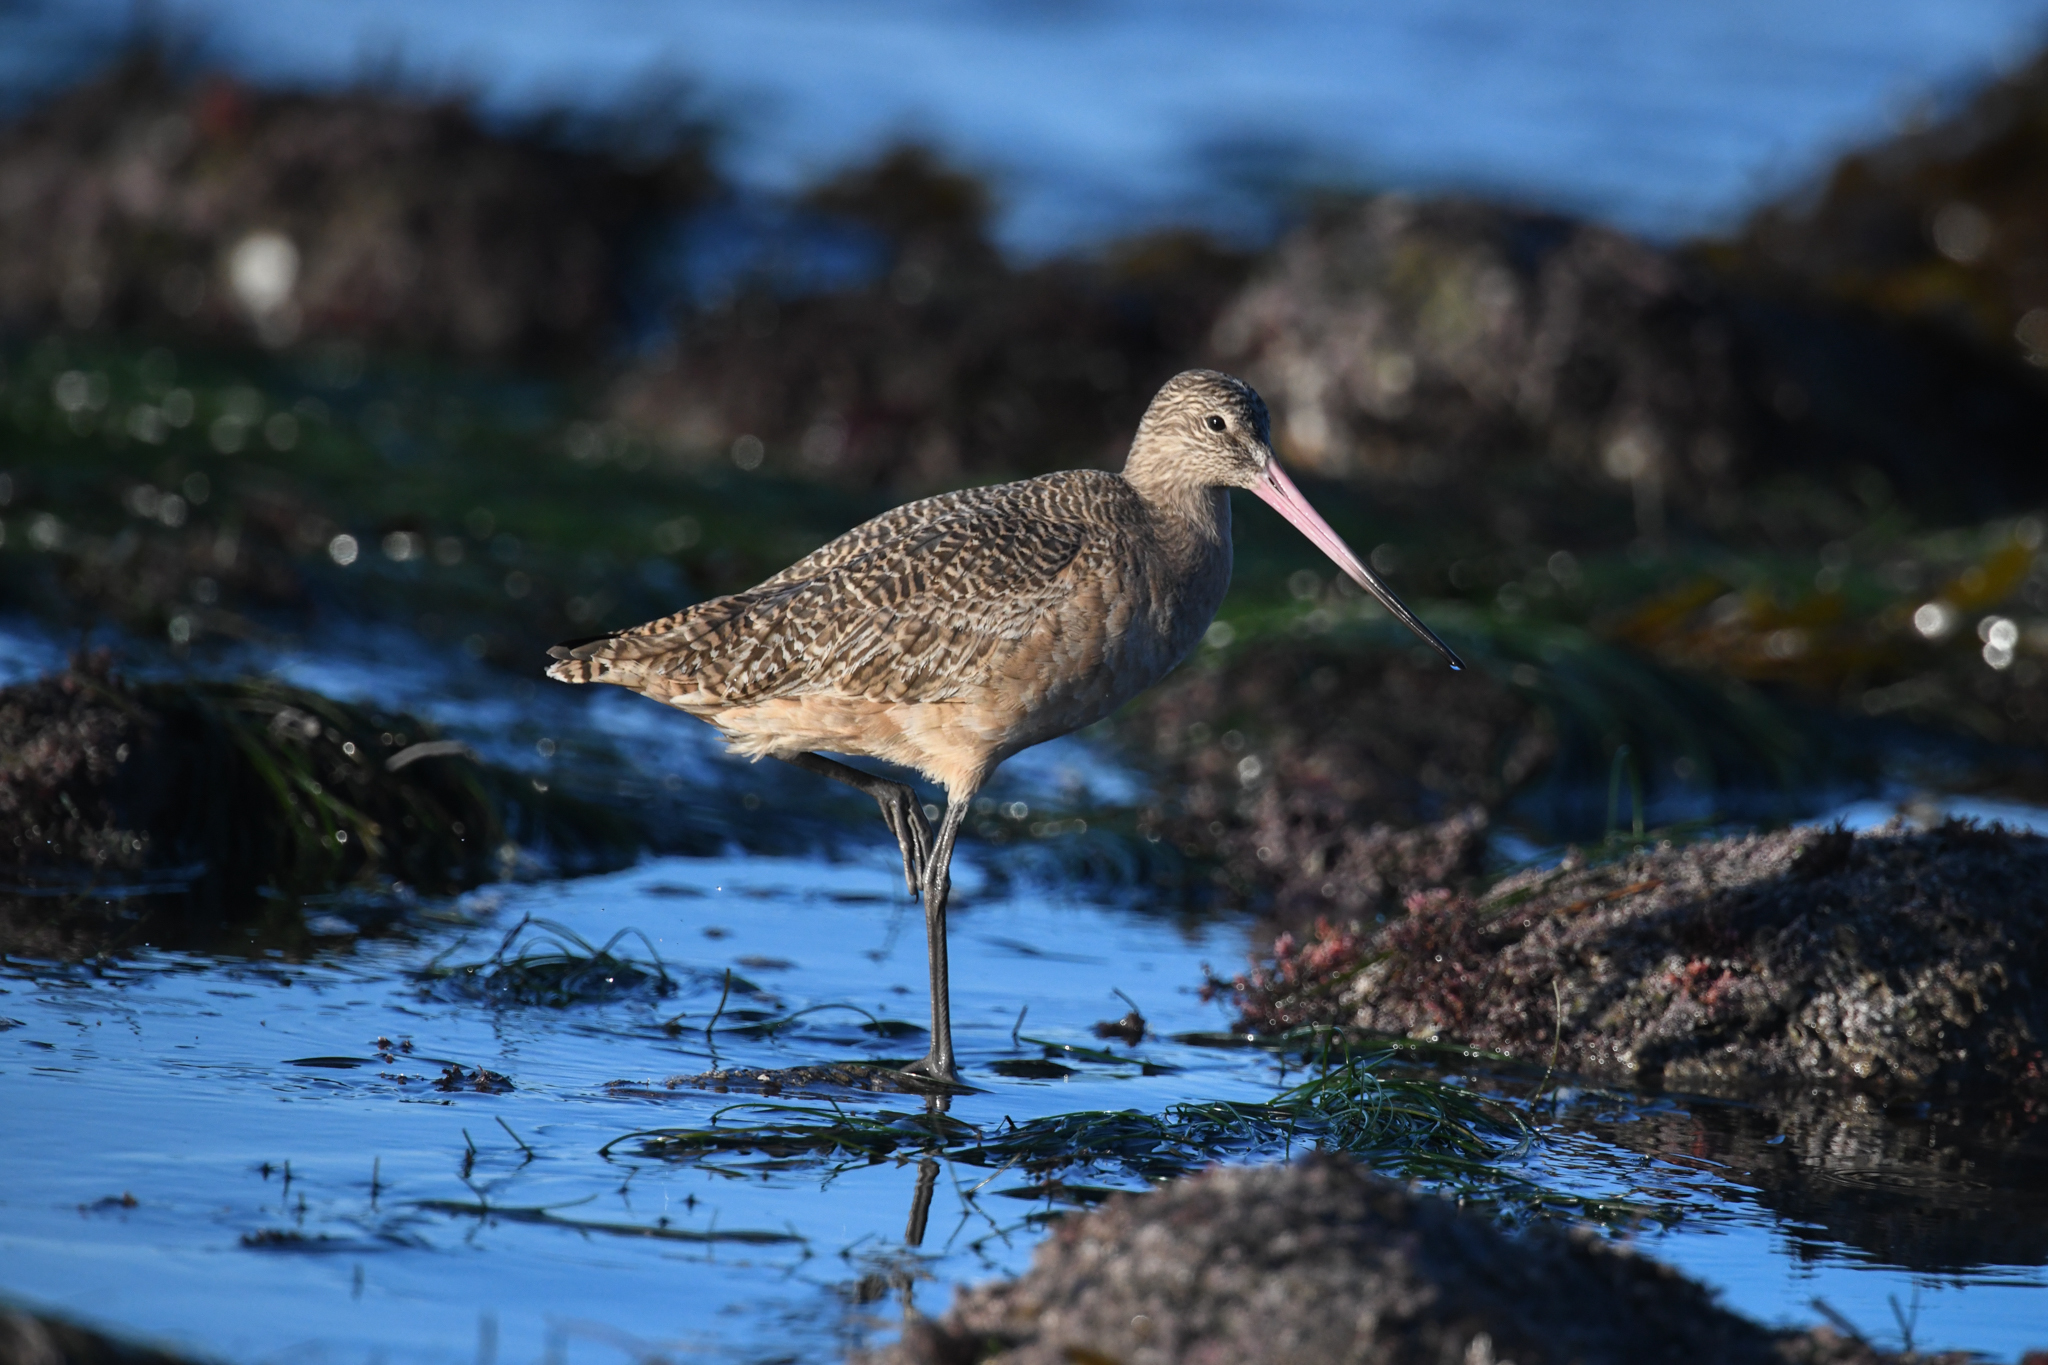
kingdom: Animalia
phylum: Chordata
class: Aves
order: Charadriiformes
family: Scolopacidae
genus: Limosa
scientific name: Limosa fedoa
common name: Marbled godwit
